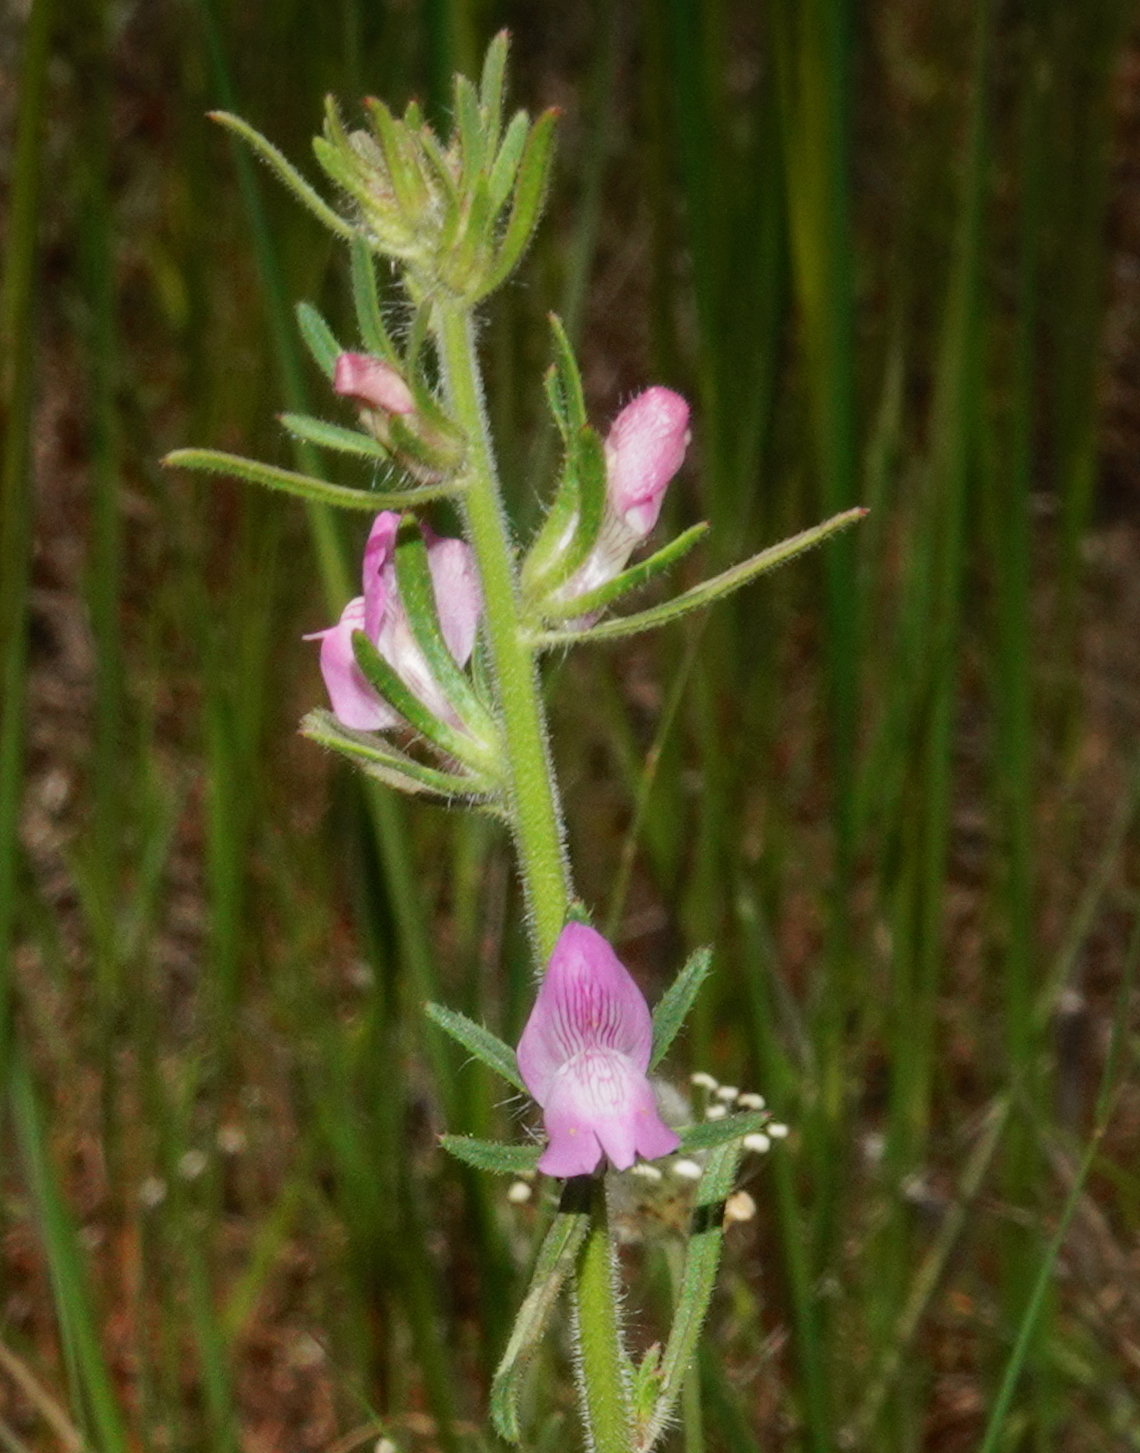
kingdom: Plantae
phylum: Tracheophyta
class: Magnoliopsida
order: Lamiales
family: Plantaginaceae
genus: Misopates
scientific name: Misopates orontium
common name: Weasel's-snout
